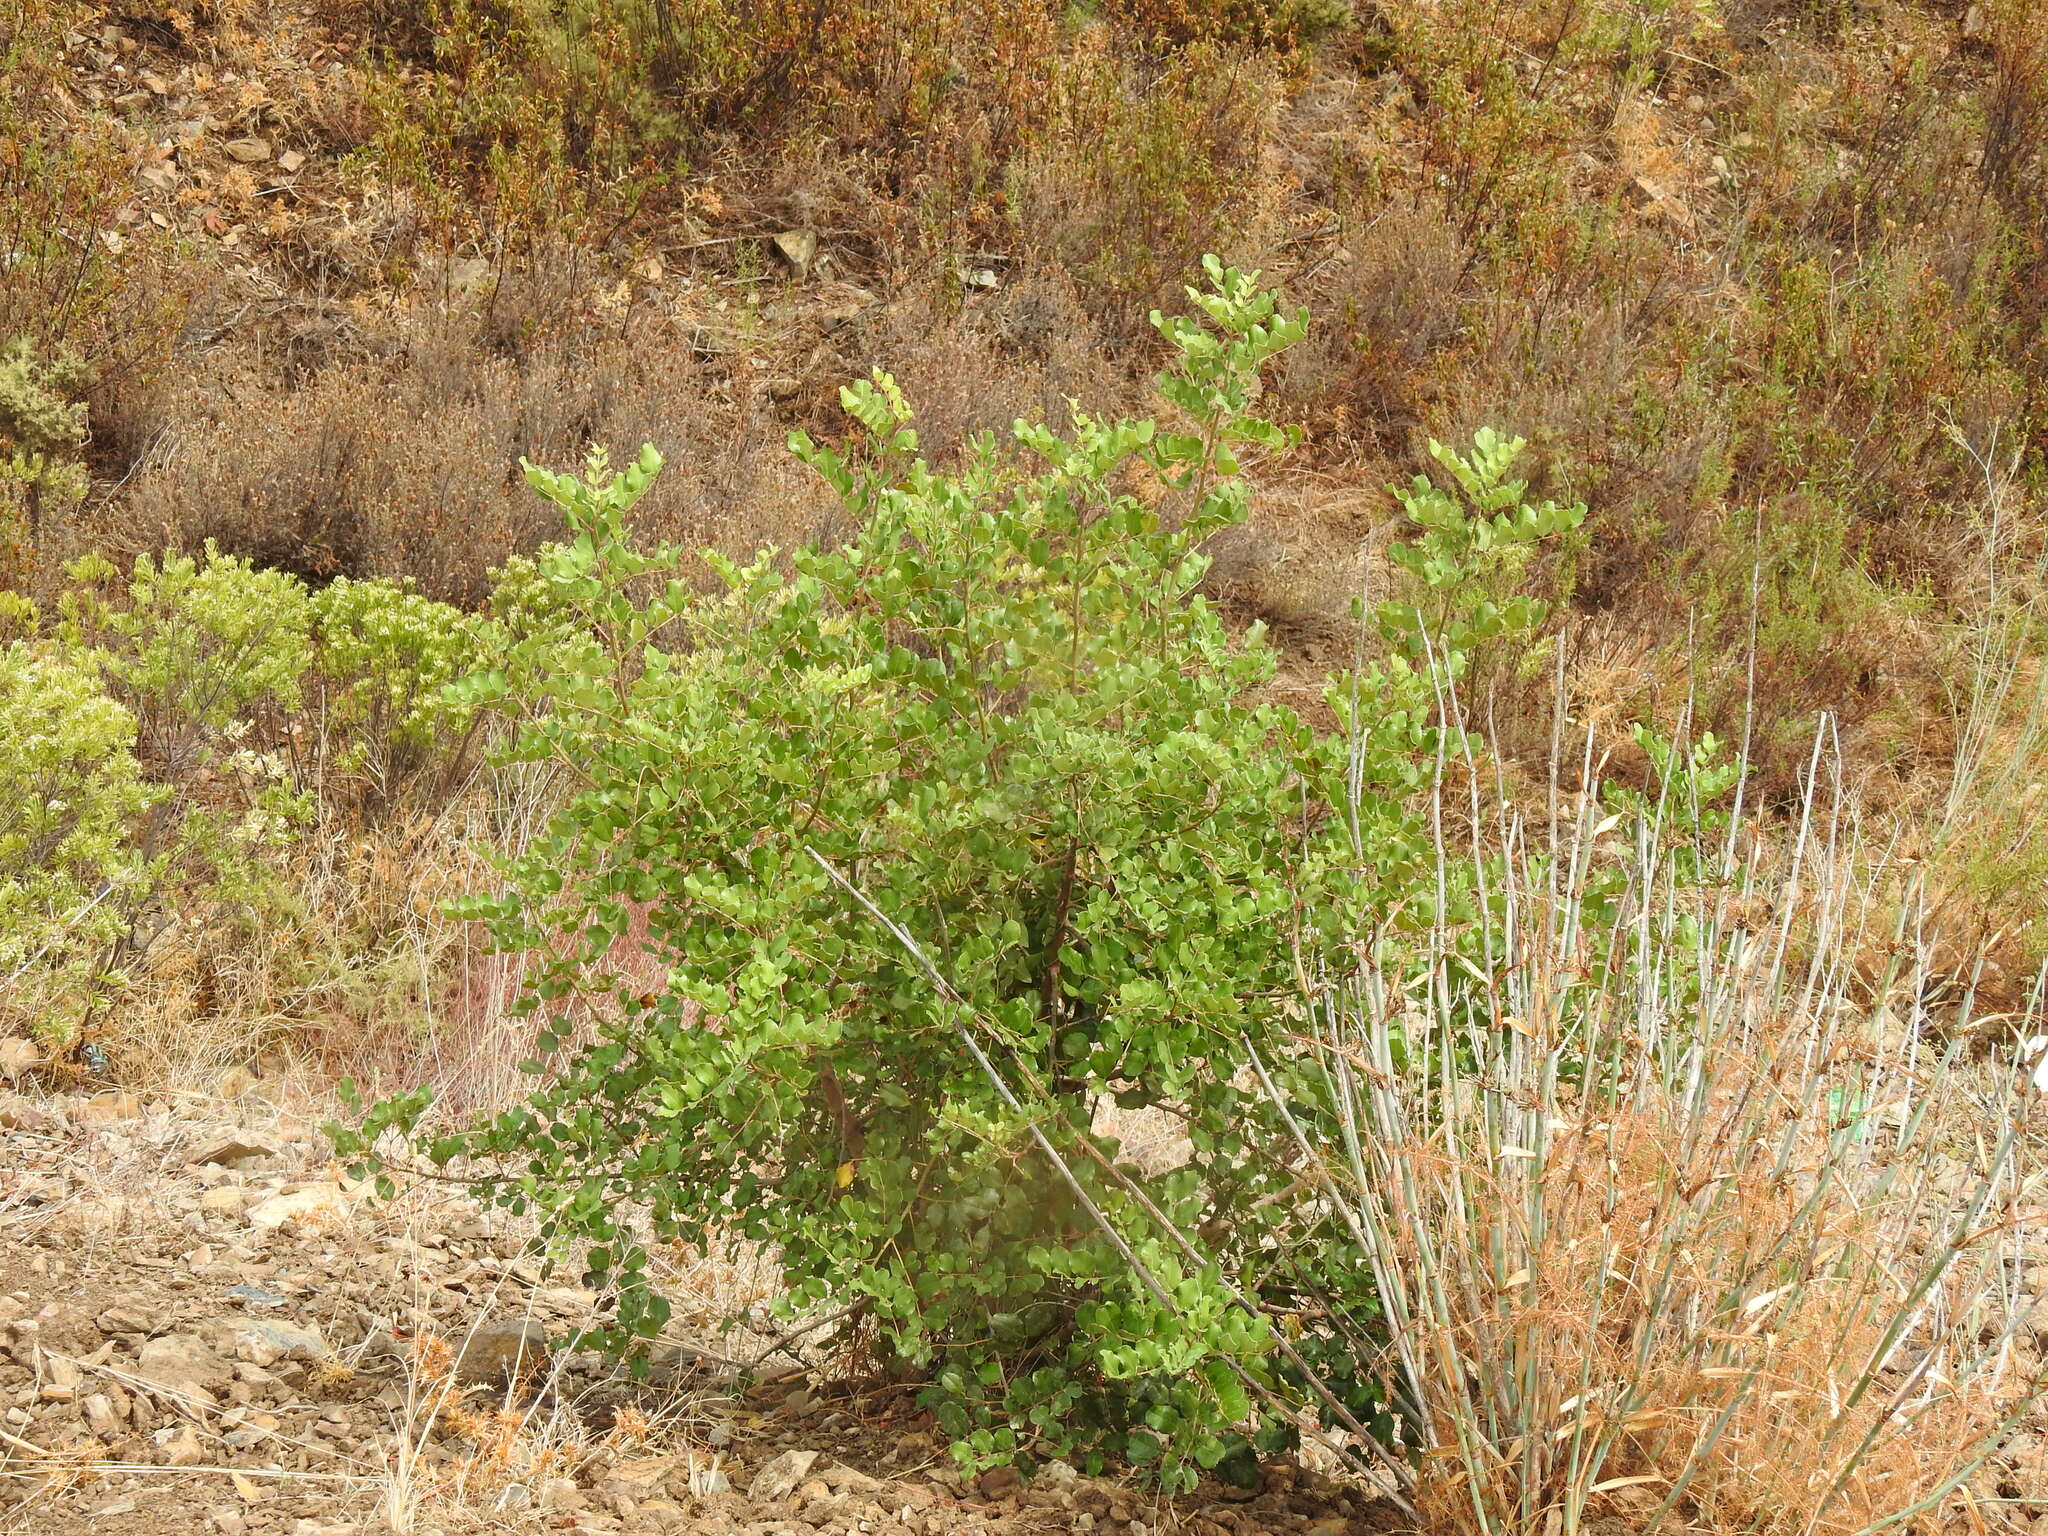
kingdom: Plantae
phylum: Tracheophyta
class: Magnoliopsida
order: Fabales
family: Fabaceae
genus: Ceratonia
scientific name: Ceratonia siliqua
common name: Carob
